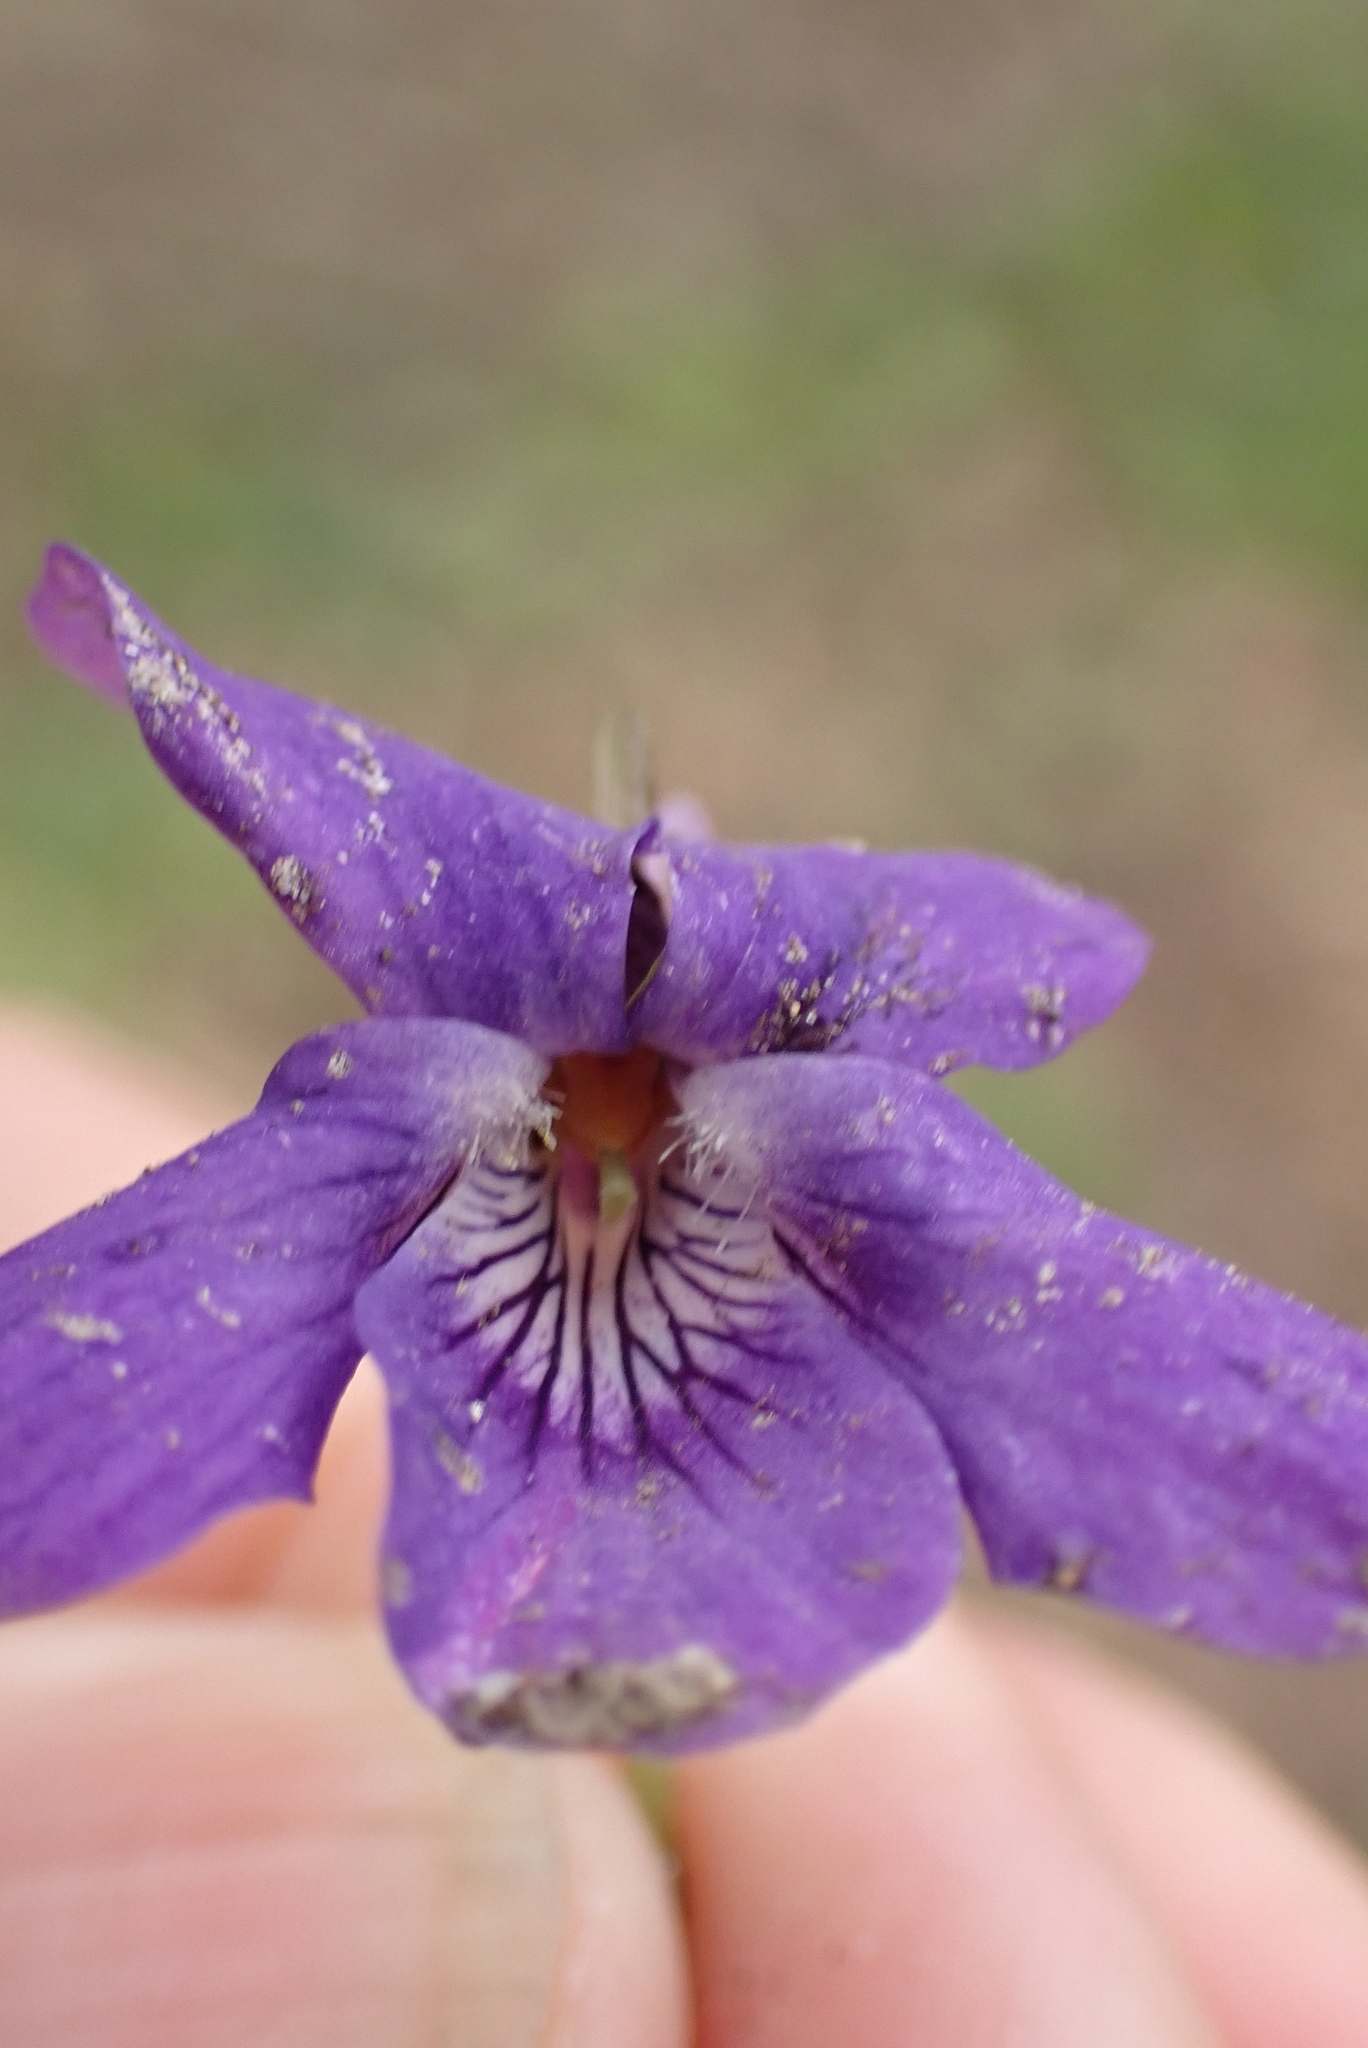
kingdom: Plantae
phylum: Tracheophyta
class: Magnoliopsida
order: Malpighiales
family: Violaceae
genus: Viola
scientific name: Viola riviniana
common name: Common dog-violet
